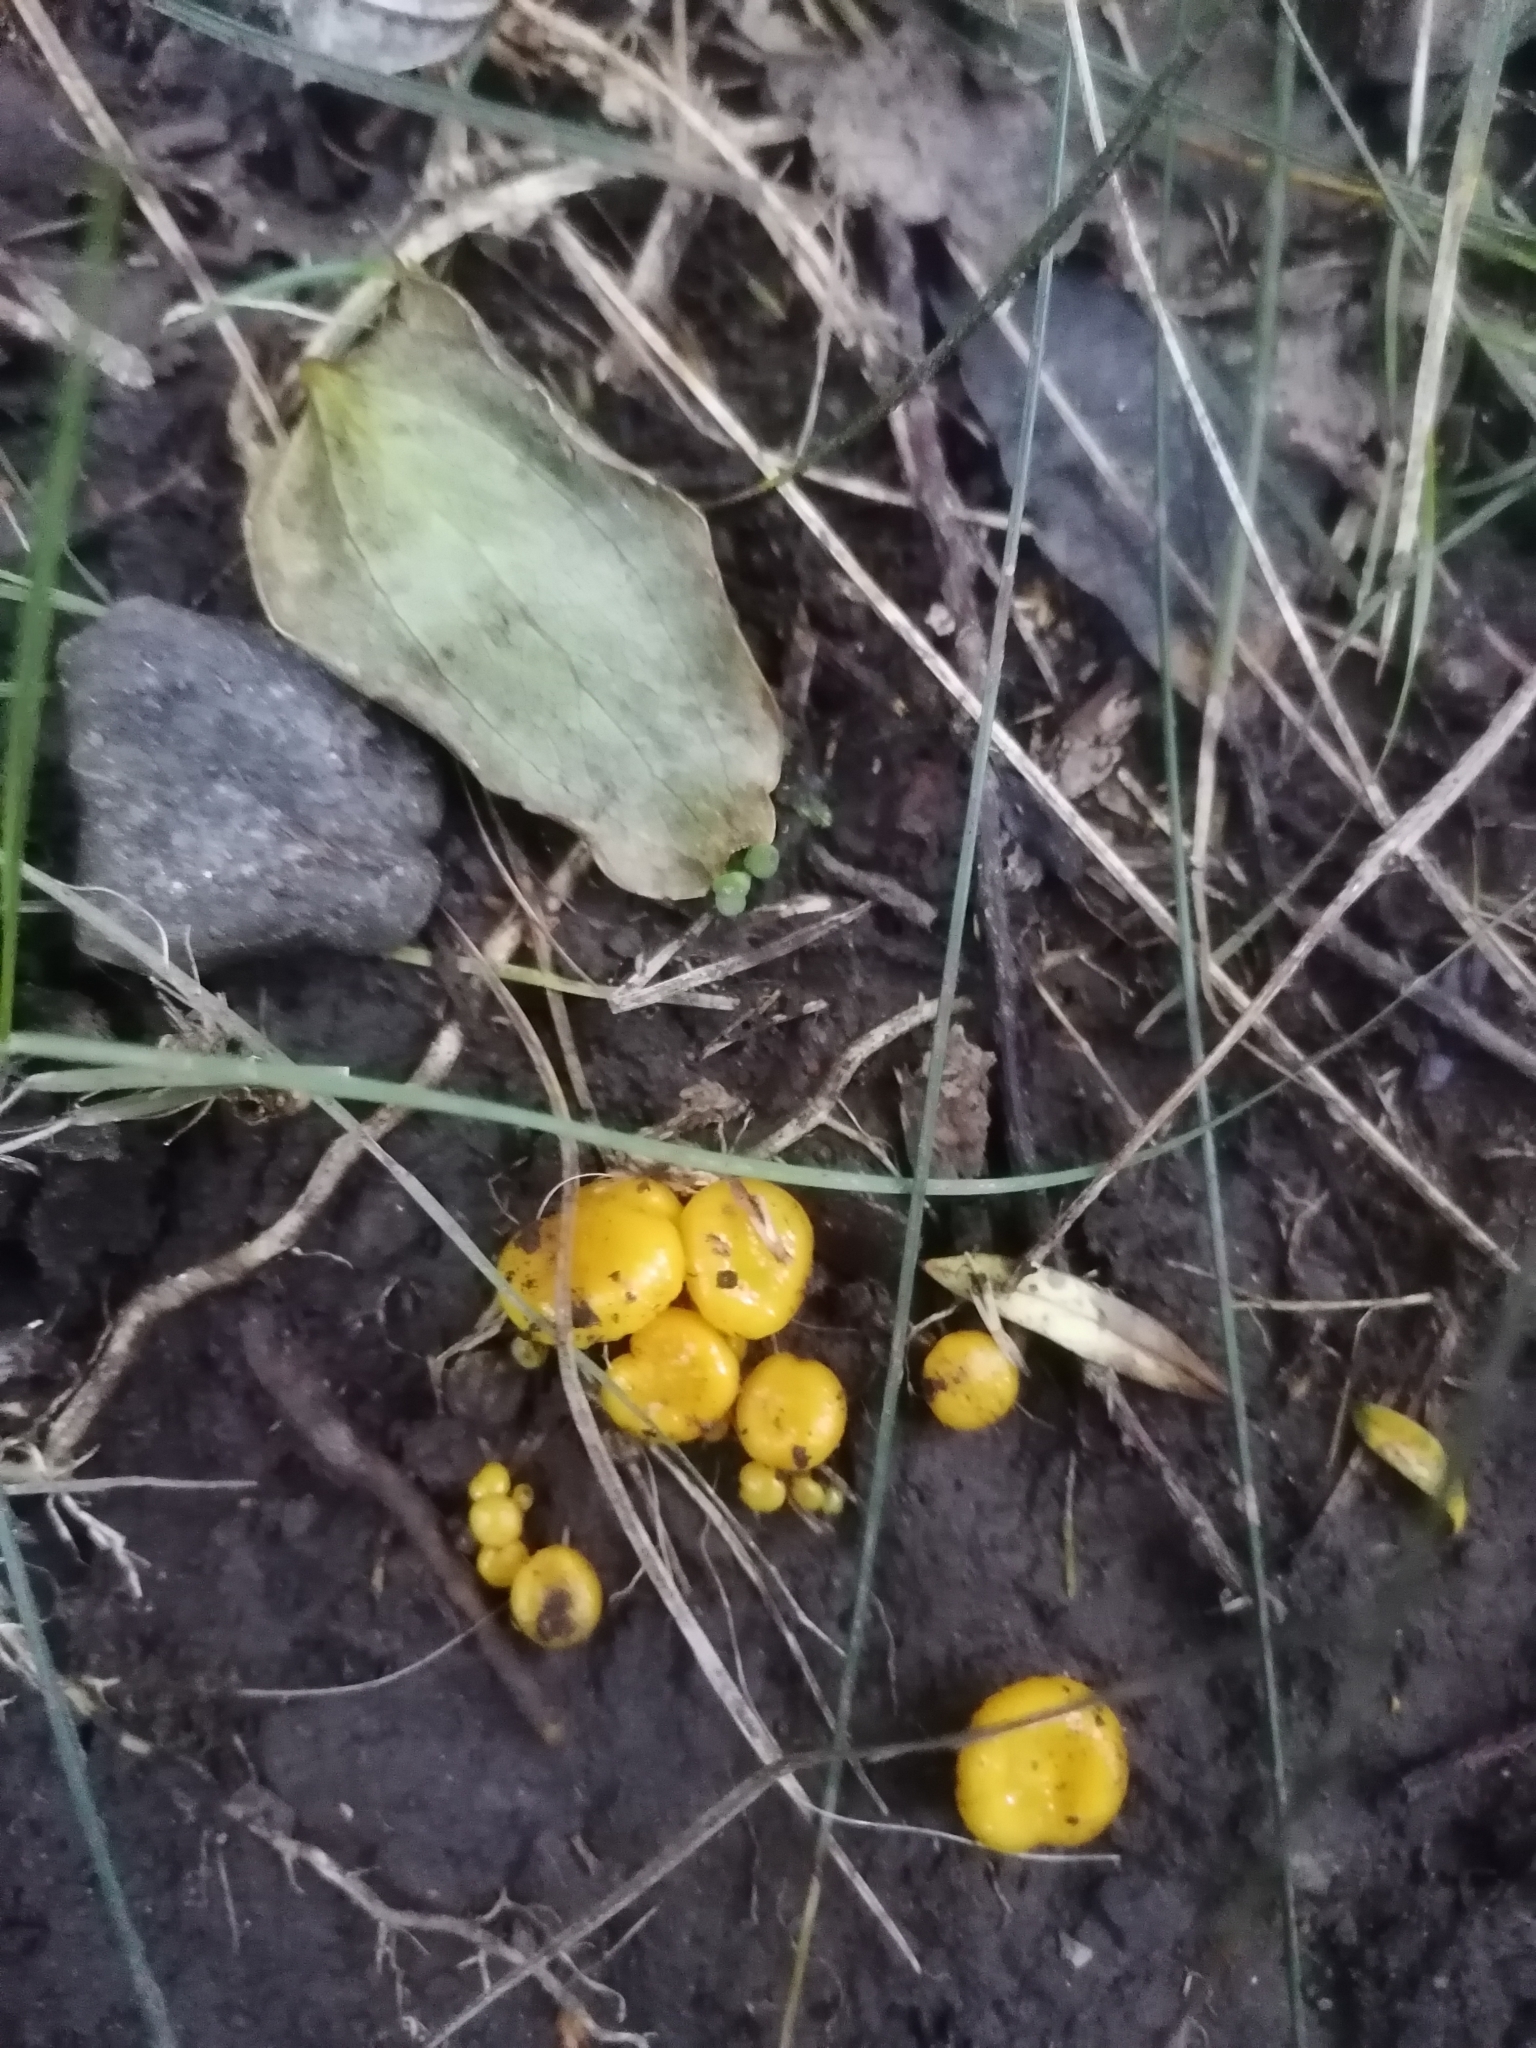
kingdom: Fungi
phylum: Basidiomycota
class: Agaricomycetes
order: Agaricales
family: Hygrophoraceae
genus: Gloioxanthomyces
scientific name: Gloioxanthomyces
